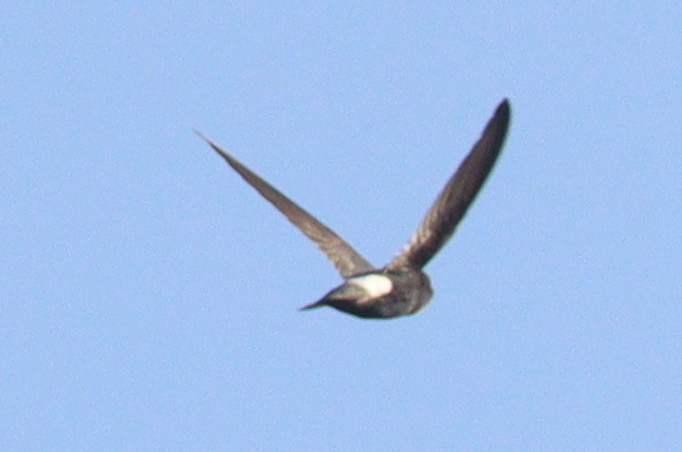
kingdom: Animalia
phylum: Chordata
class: Aves
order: Apodiformes
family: Apodidae
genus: Apus
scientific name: Apus affinis
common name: Little swift
